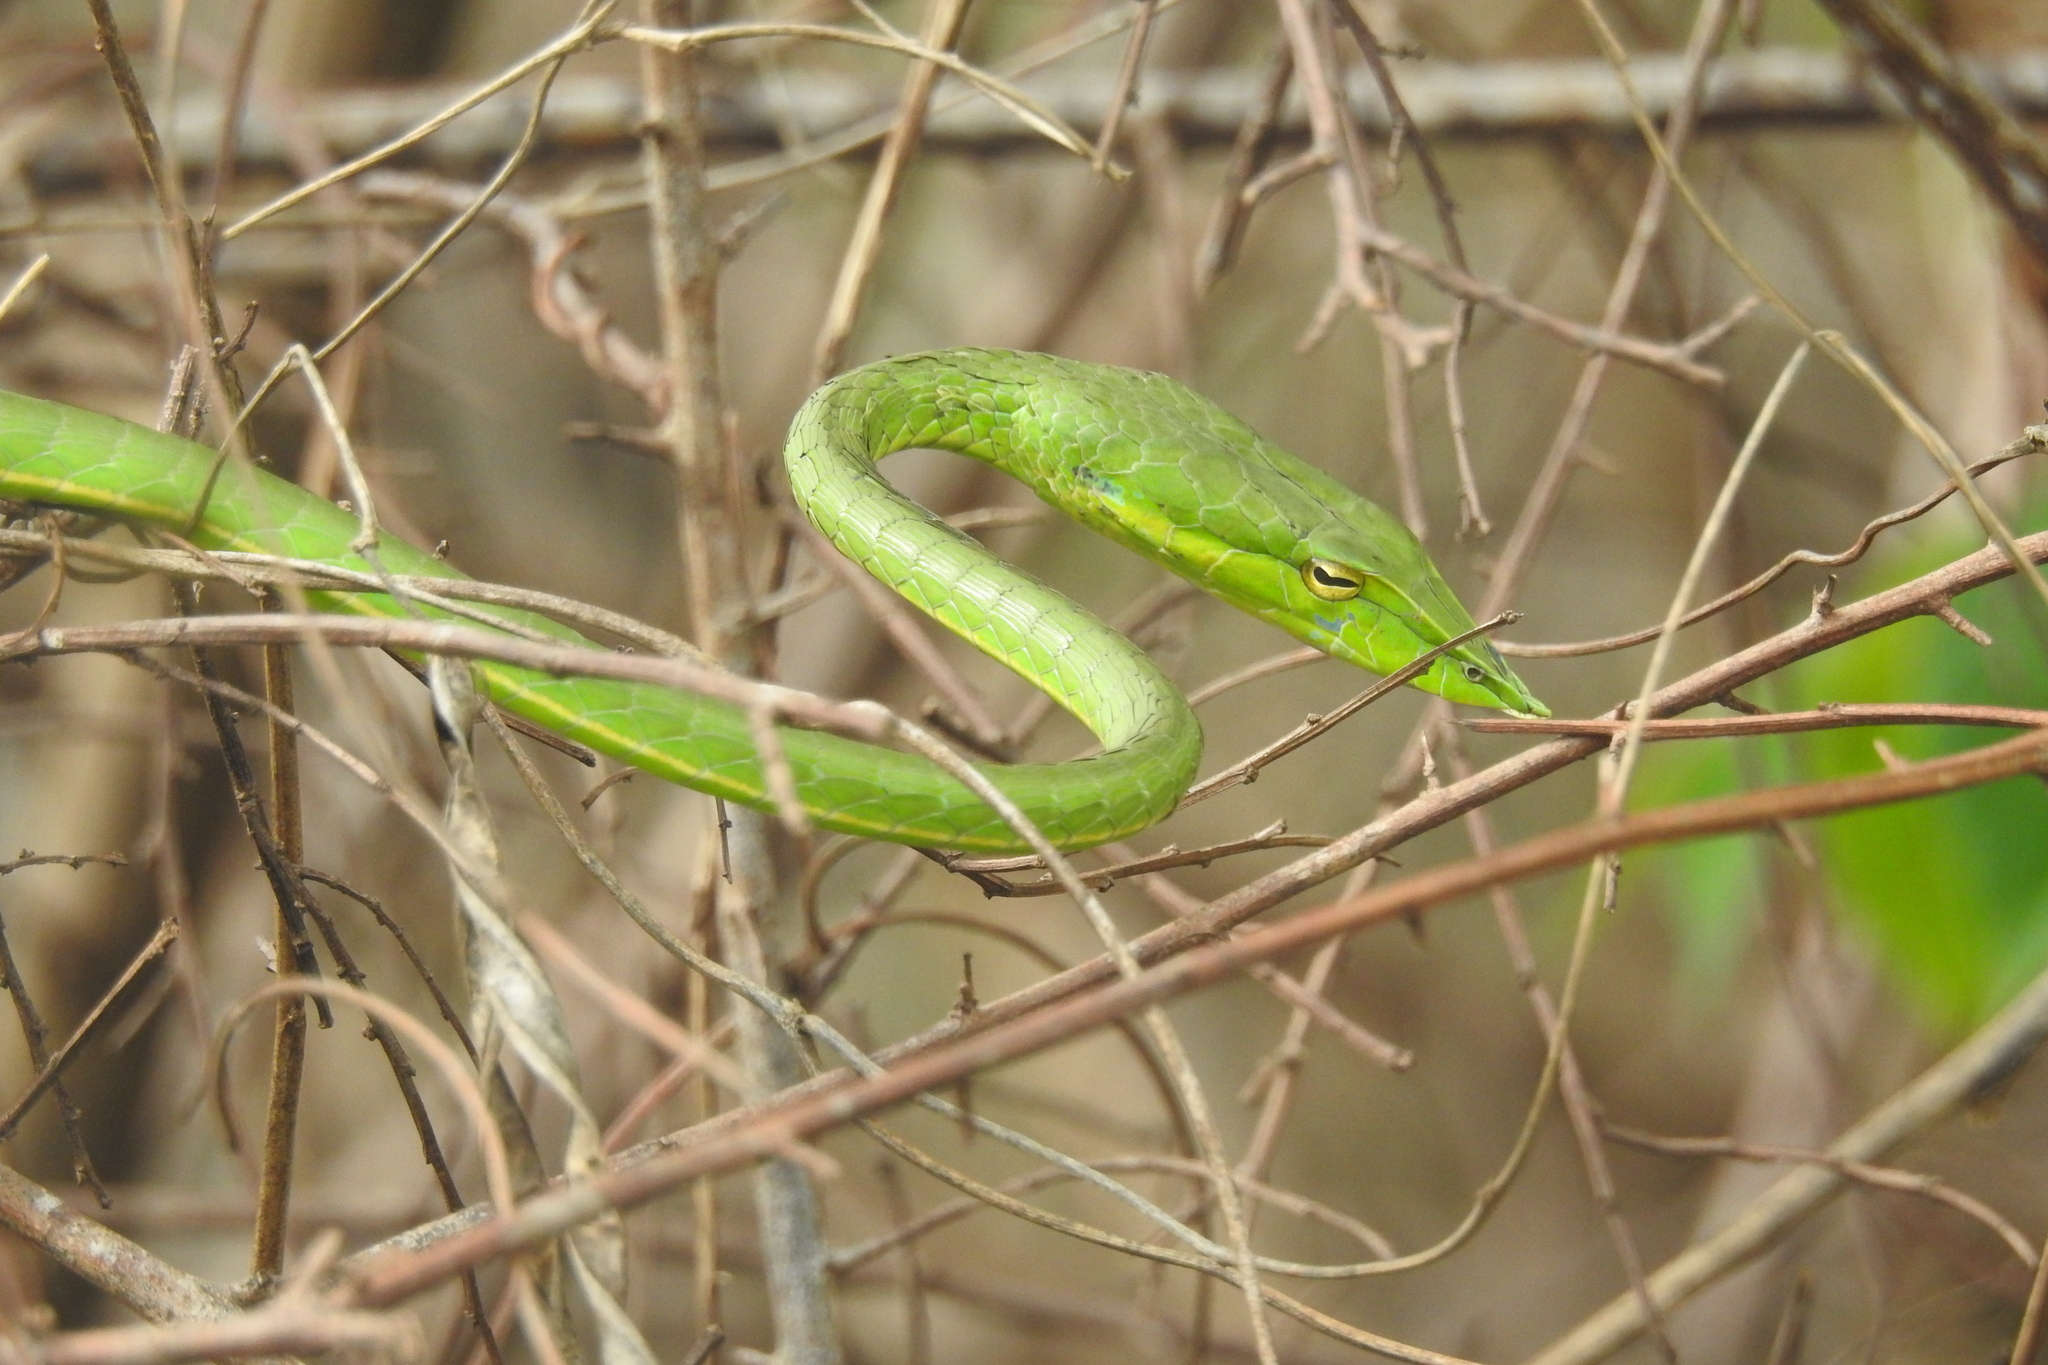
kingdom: Animalia
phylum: Chordata
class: Squamata
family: Colubridae
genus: Ahaetulla
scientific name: Ahaetulla oxyrhyncha
